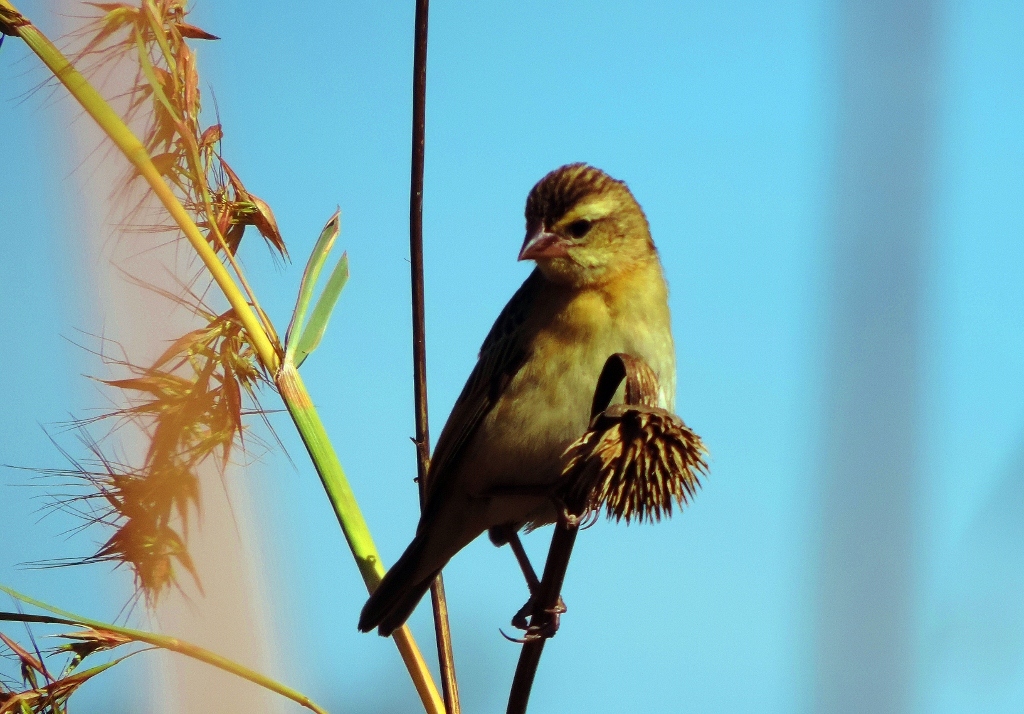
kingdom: Animalia
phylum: Chordata
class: Aves
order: Passeriformes
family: Ploceidae
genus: Euplectes
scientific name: Euplectes orix
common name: Southern red bishop
